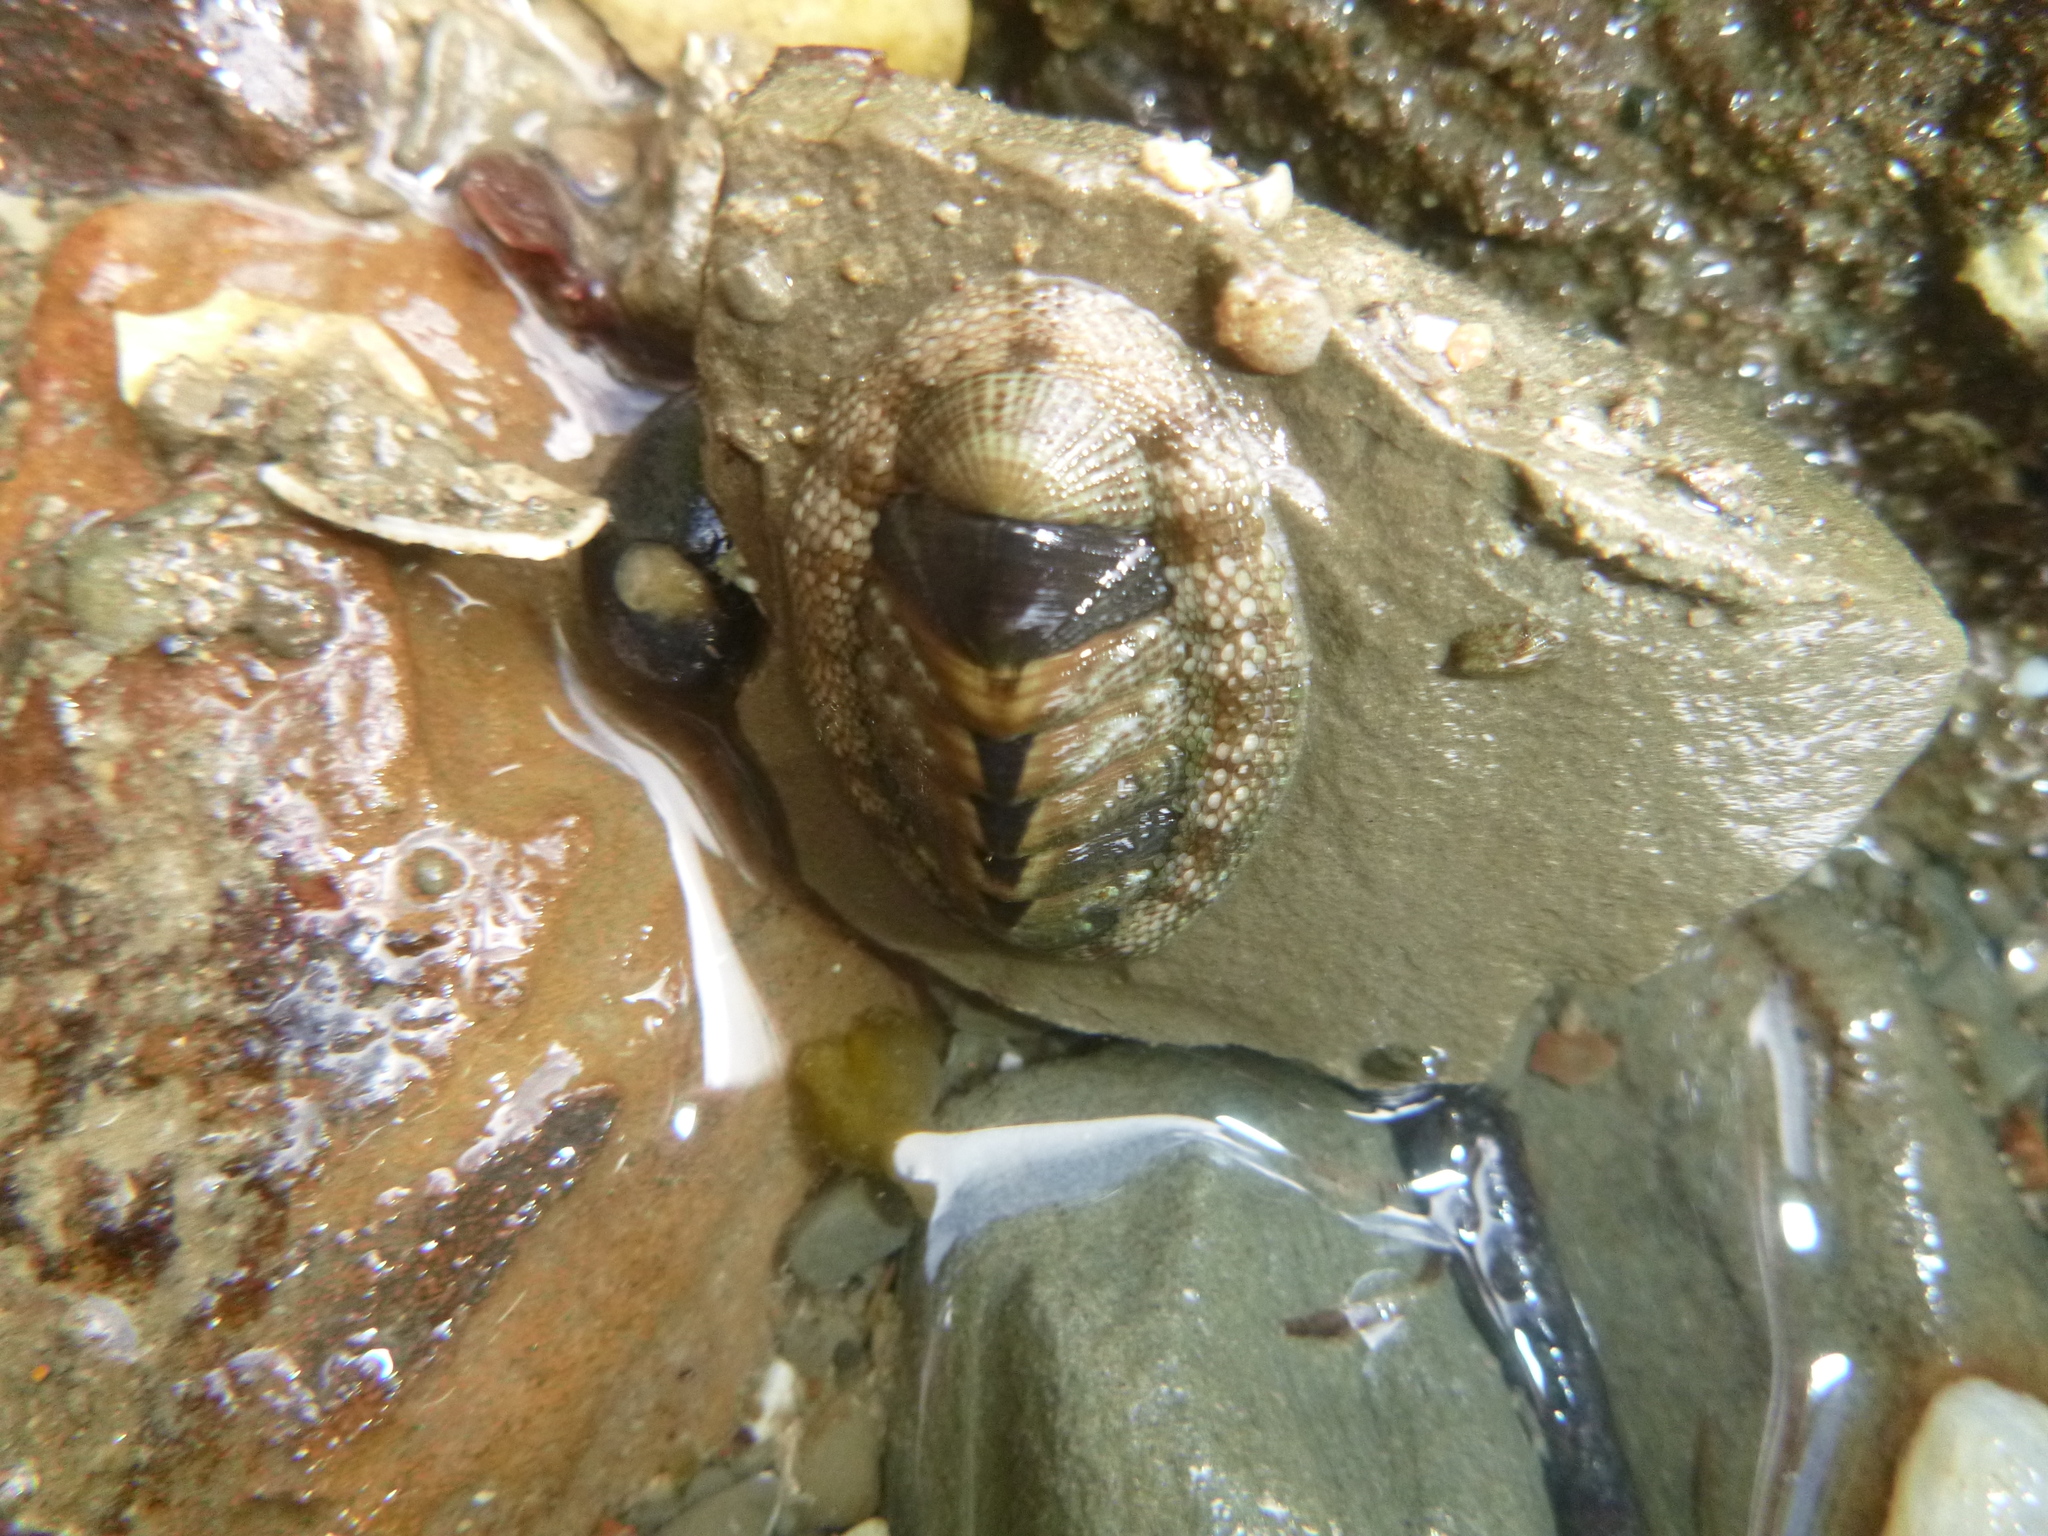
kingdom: Animalia
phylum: Mollusca
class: Polyplacophora
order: Chitonida
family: Chitonidae
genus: Sypharochiton
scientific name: Sypharochiton pelliserpentis
